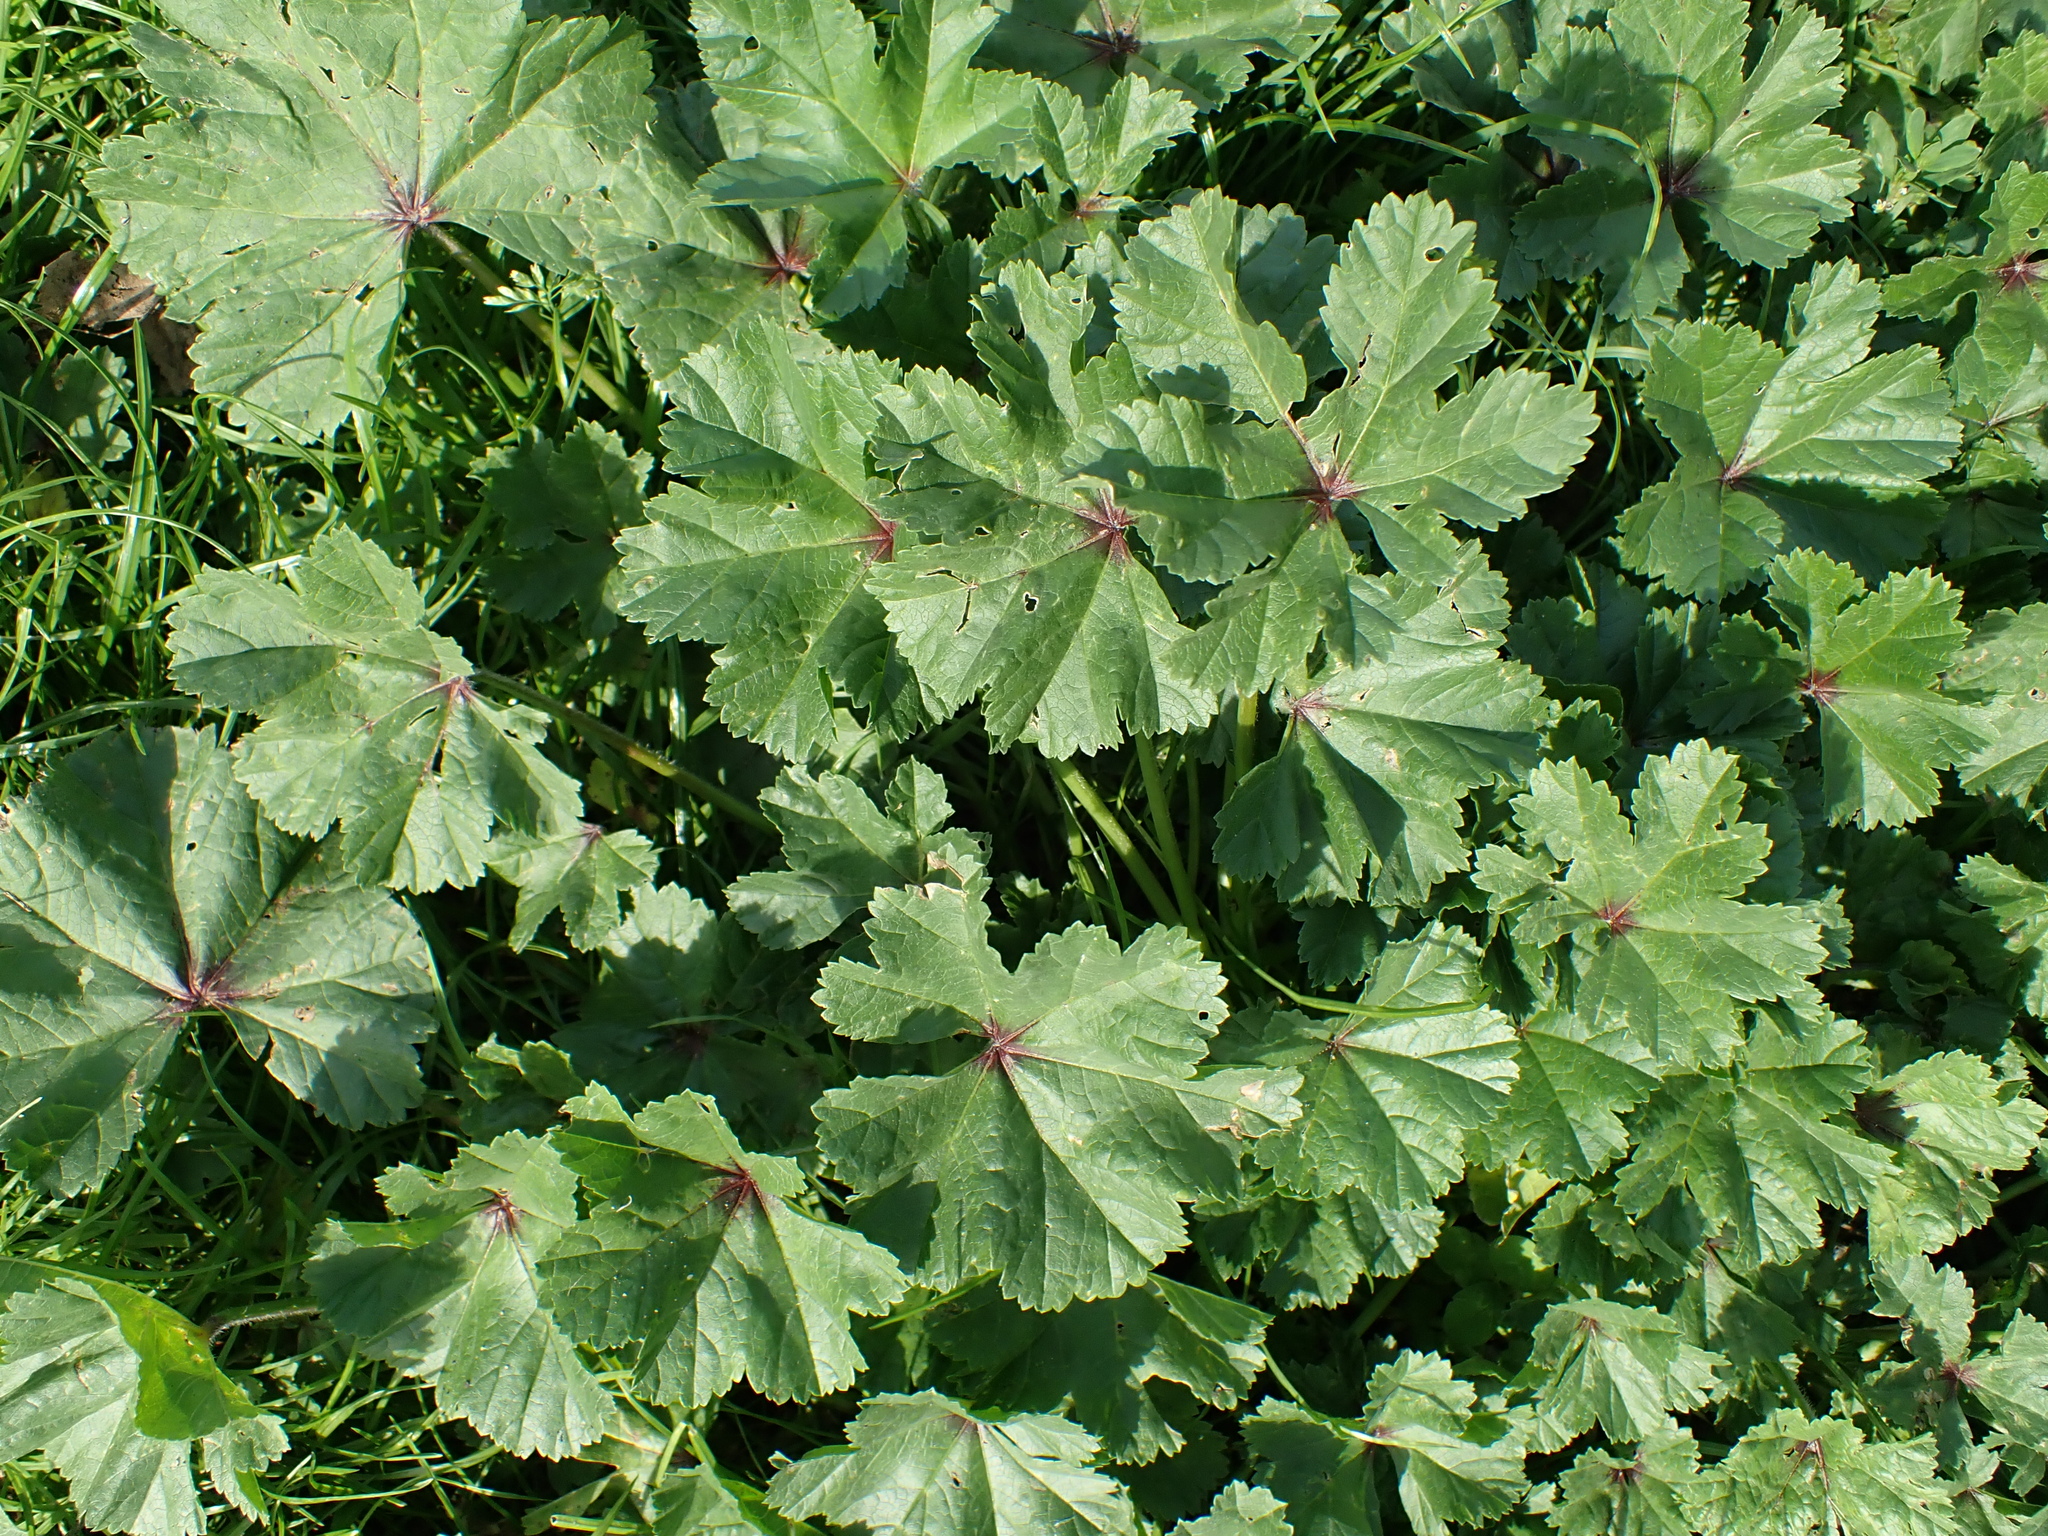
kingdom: Plantae
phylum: Tracheophyta
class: Magnoliopsida
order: Malvales
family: Malvaceae
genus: Malva
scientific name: Malva sylvestris
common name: Common mallow
